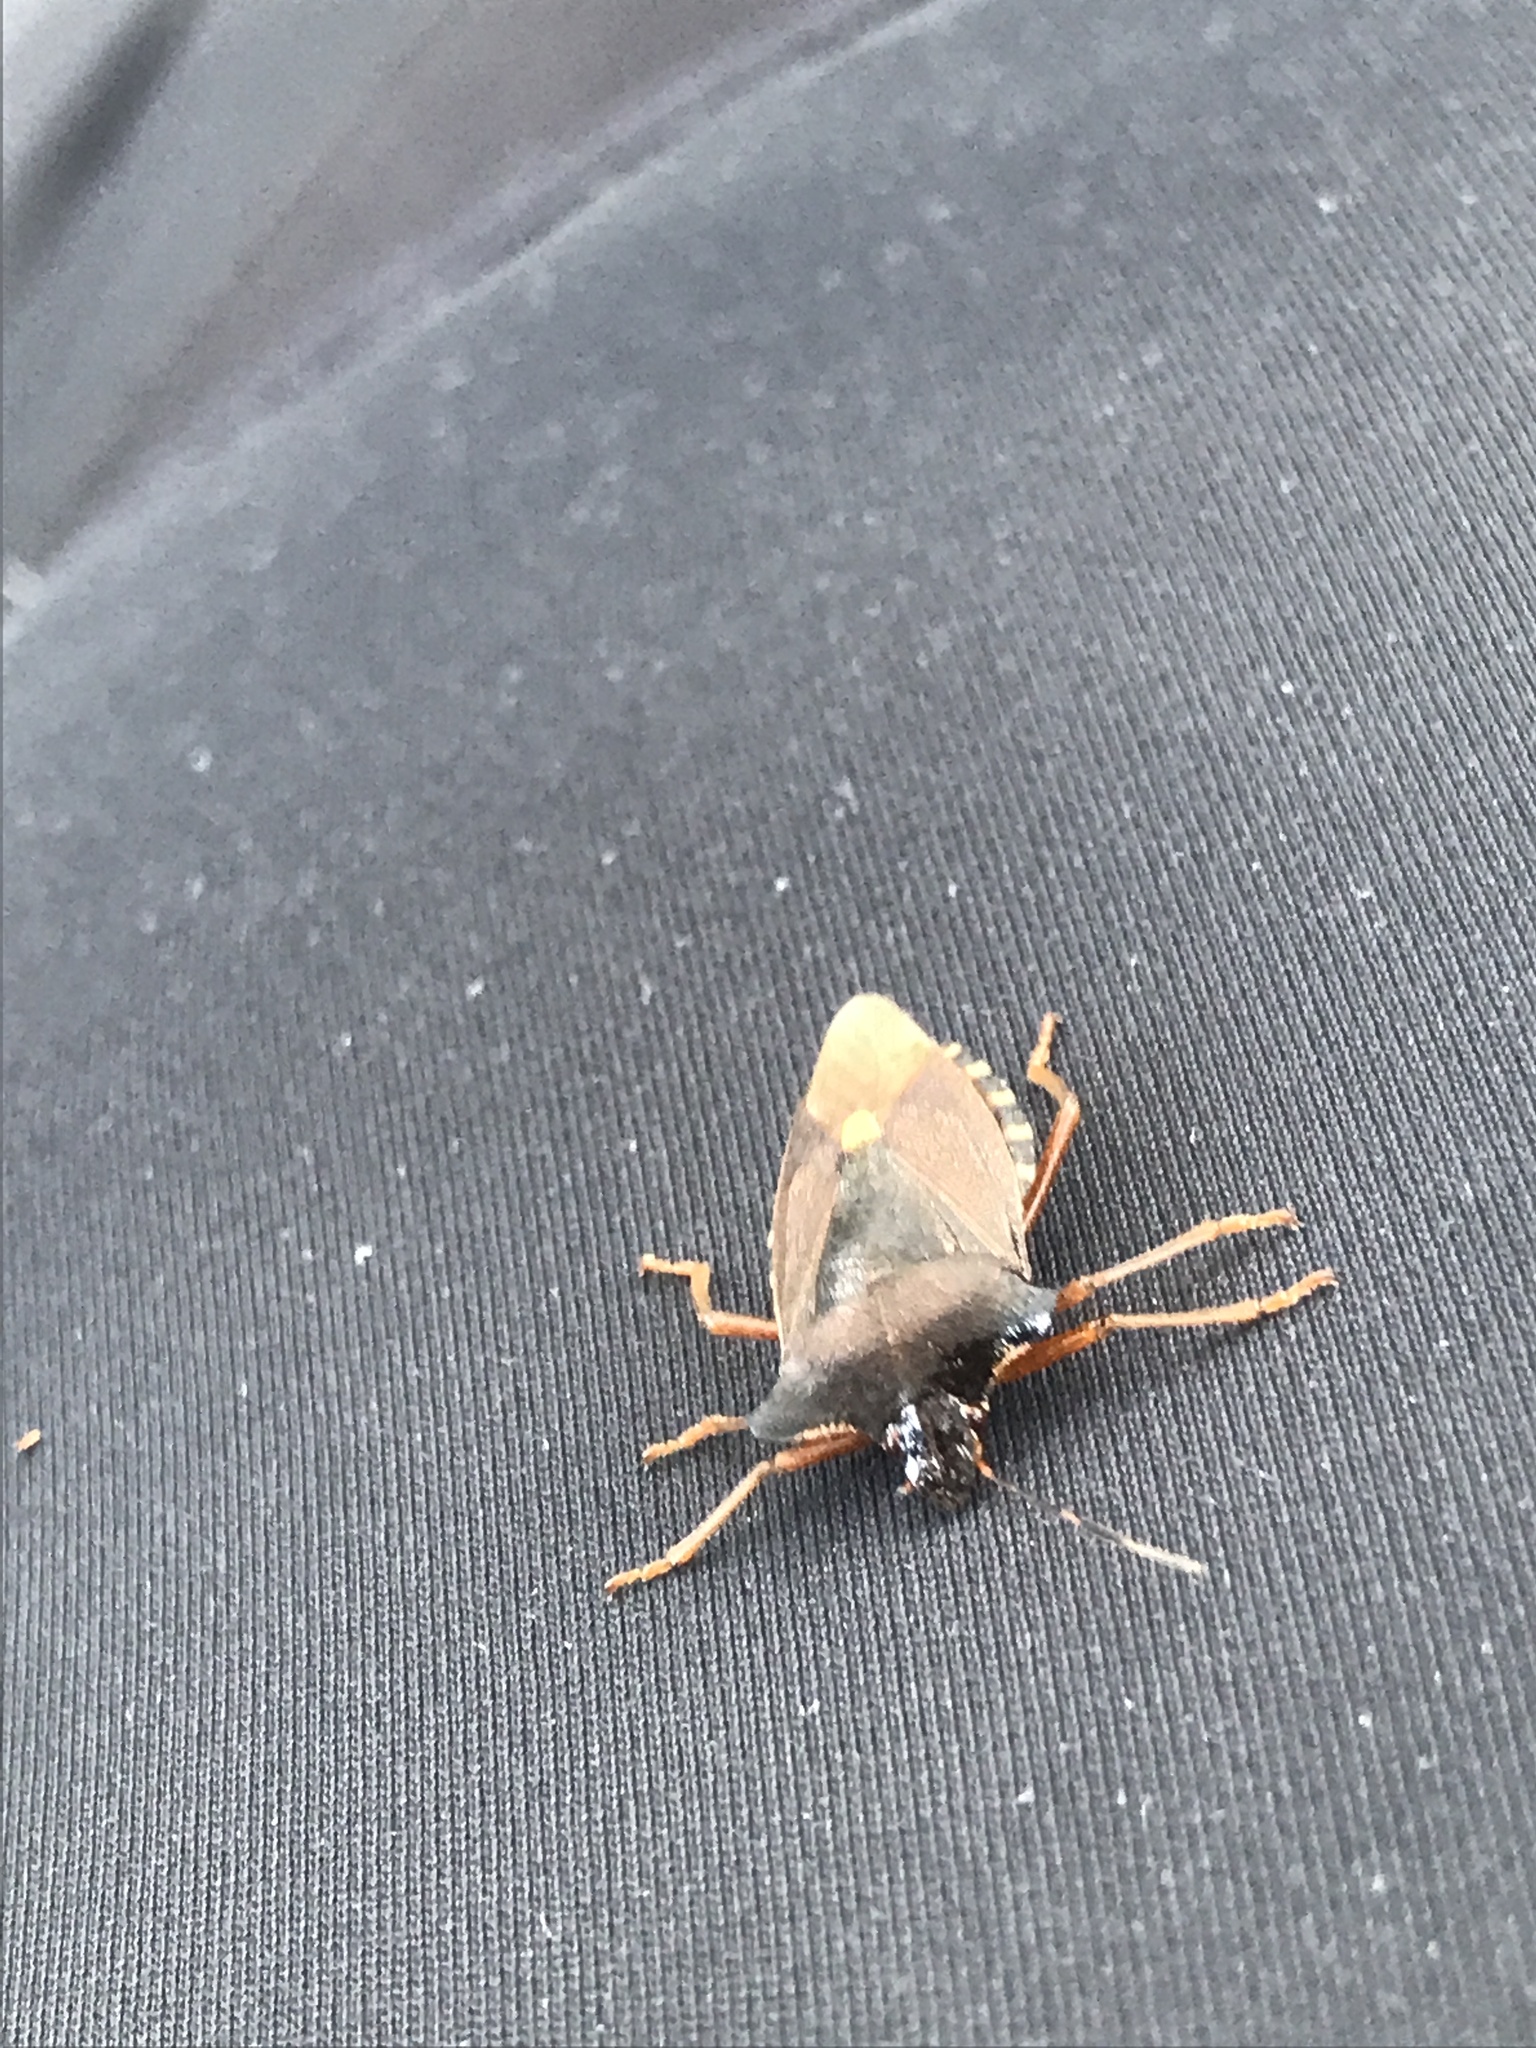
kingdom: Animalia
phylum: Arthropoda
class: Insecta
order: Hemiptera
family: Pentatomidae
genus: Pentatoma
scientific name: Pentatoma rufipes
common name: Forest bug
